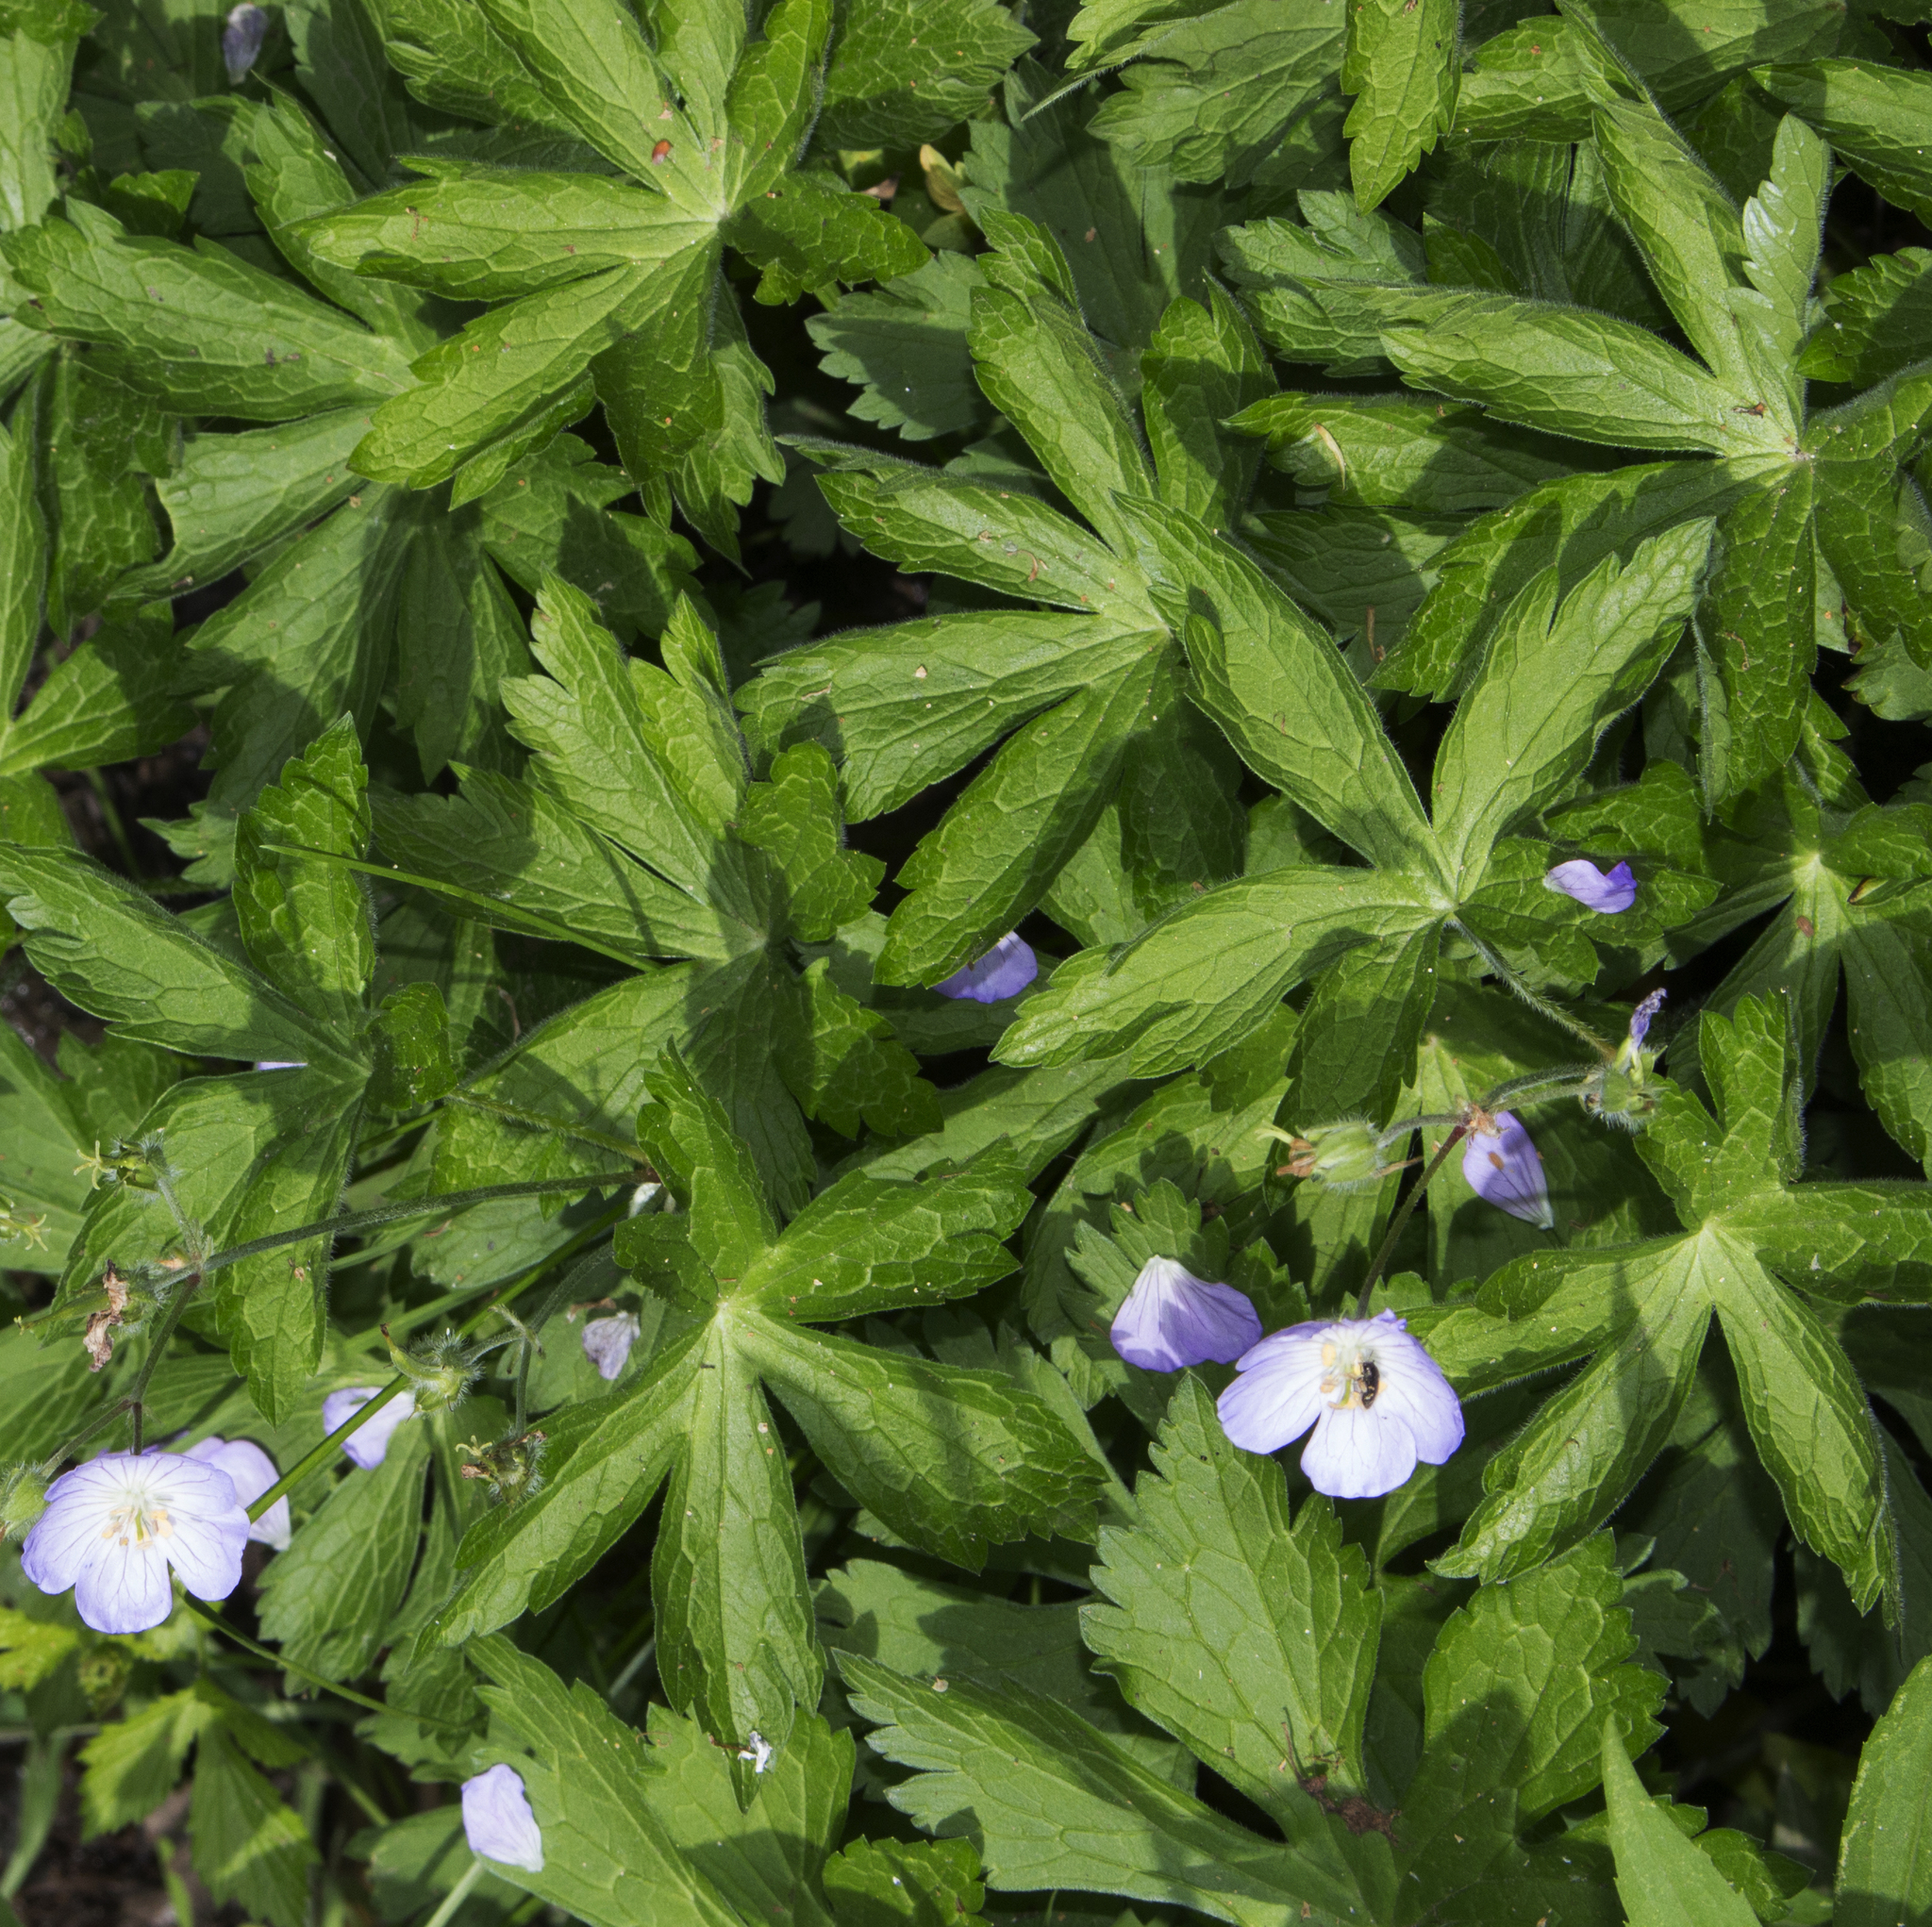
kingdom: Plantae
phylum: Tracheophyta
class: Magnoliopsida
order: Geraniales
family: Geraniaceae
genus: Geranium
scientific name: Geranium maculatum
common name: Spotted geranium
